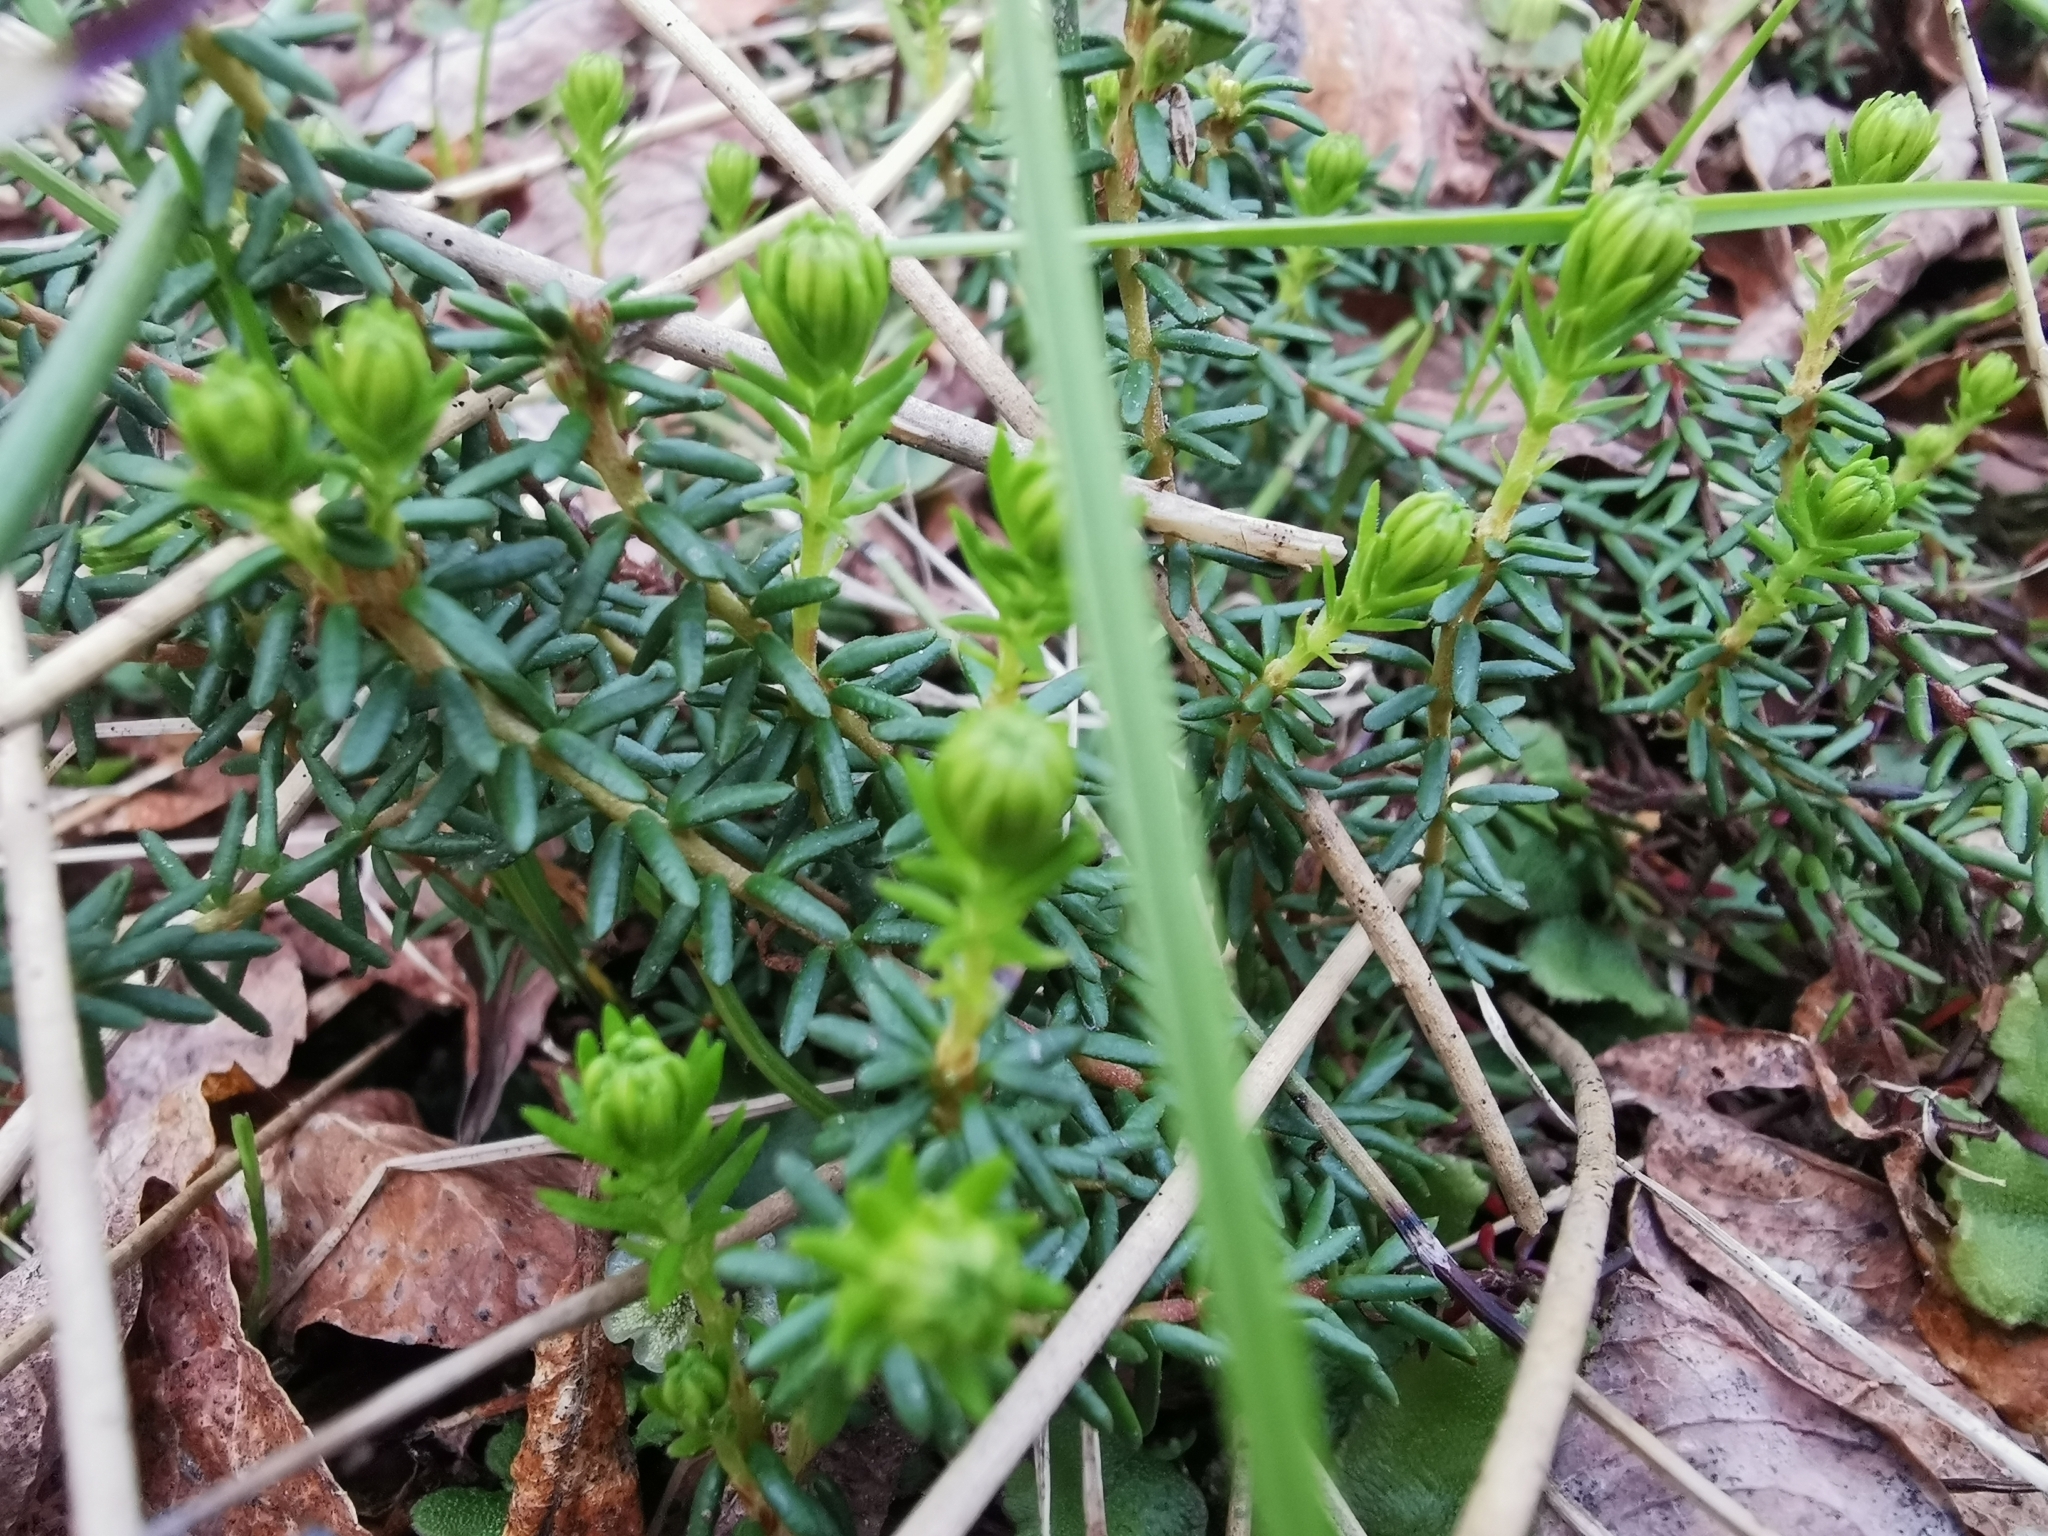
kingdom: Plantae
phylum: Tracheophyta
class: Magnoliopsida
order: Ericales
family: Ericaceae
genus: Empetrum
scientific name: Empetrum nigrum
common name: Black crowberry
